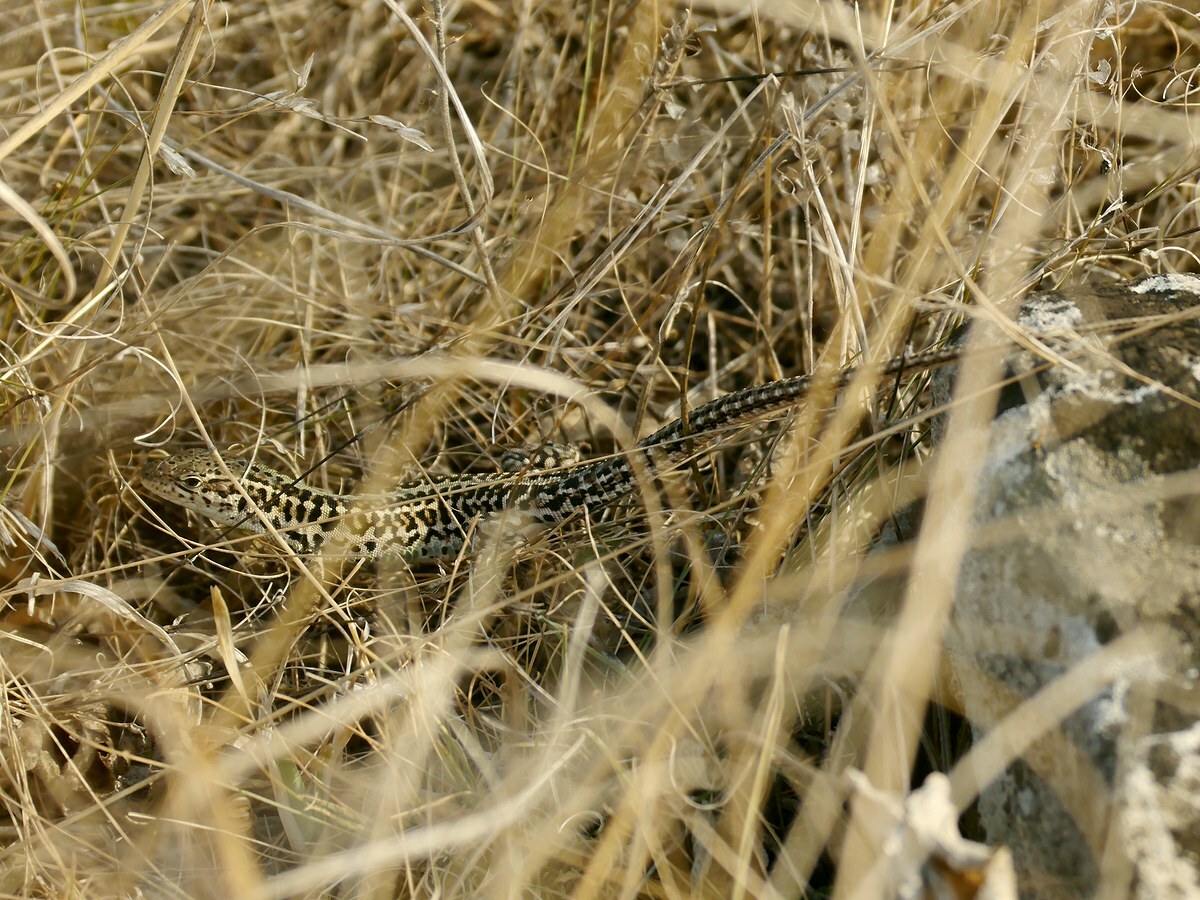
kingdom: Animalia
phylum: Chordata
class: Squamata
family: Lacertidae
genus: Podarcis
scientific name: Podarcis tauricus
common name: Balkan wall lizard
